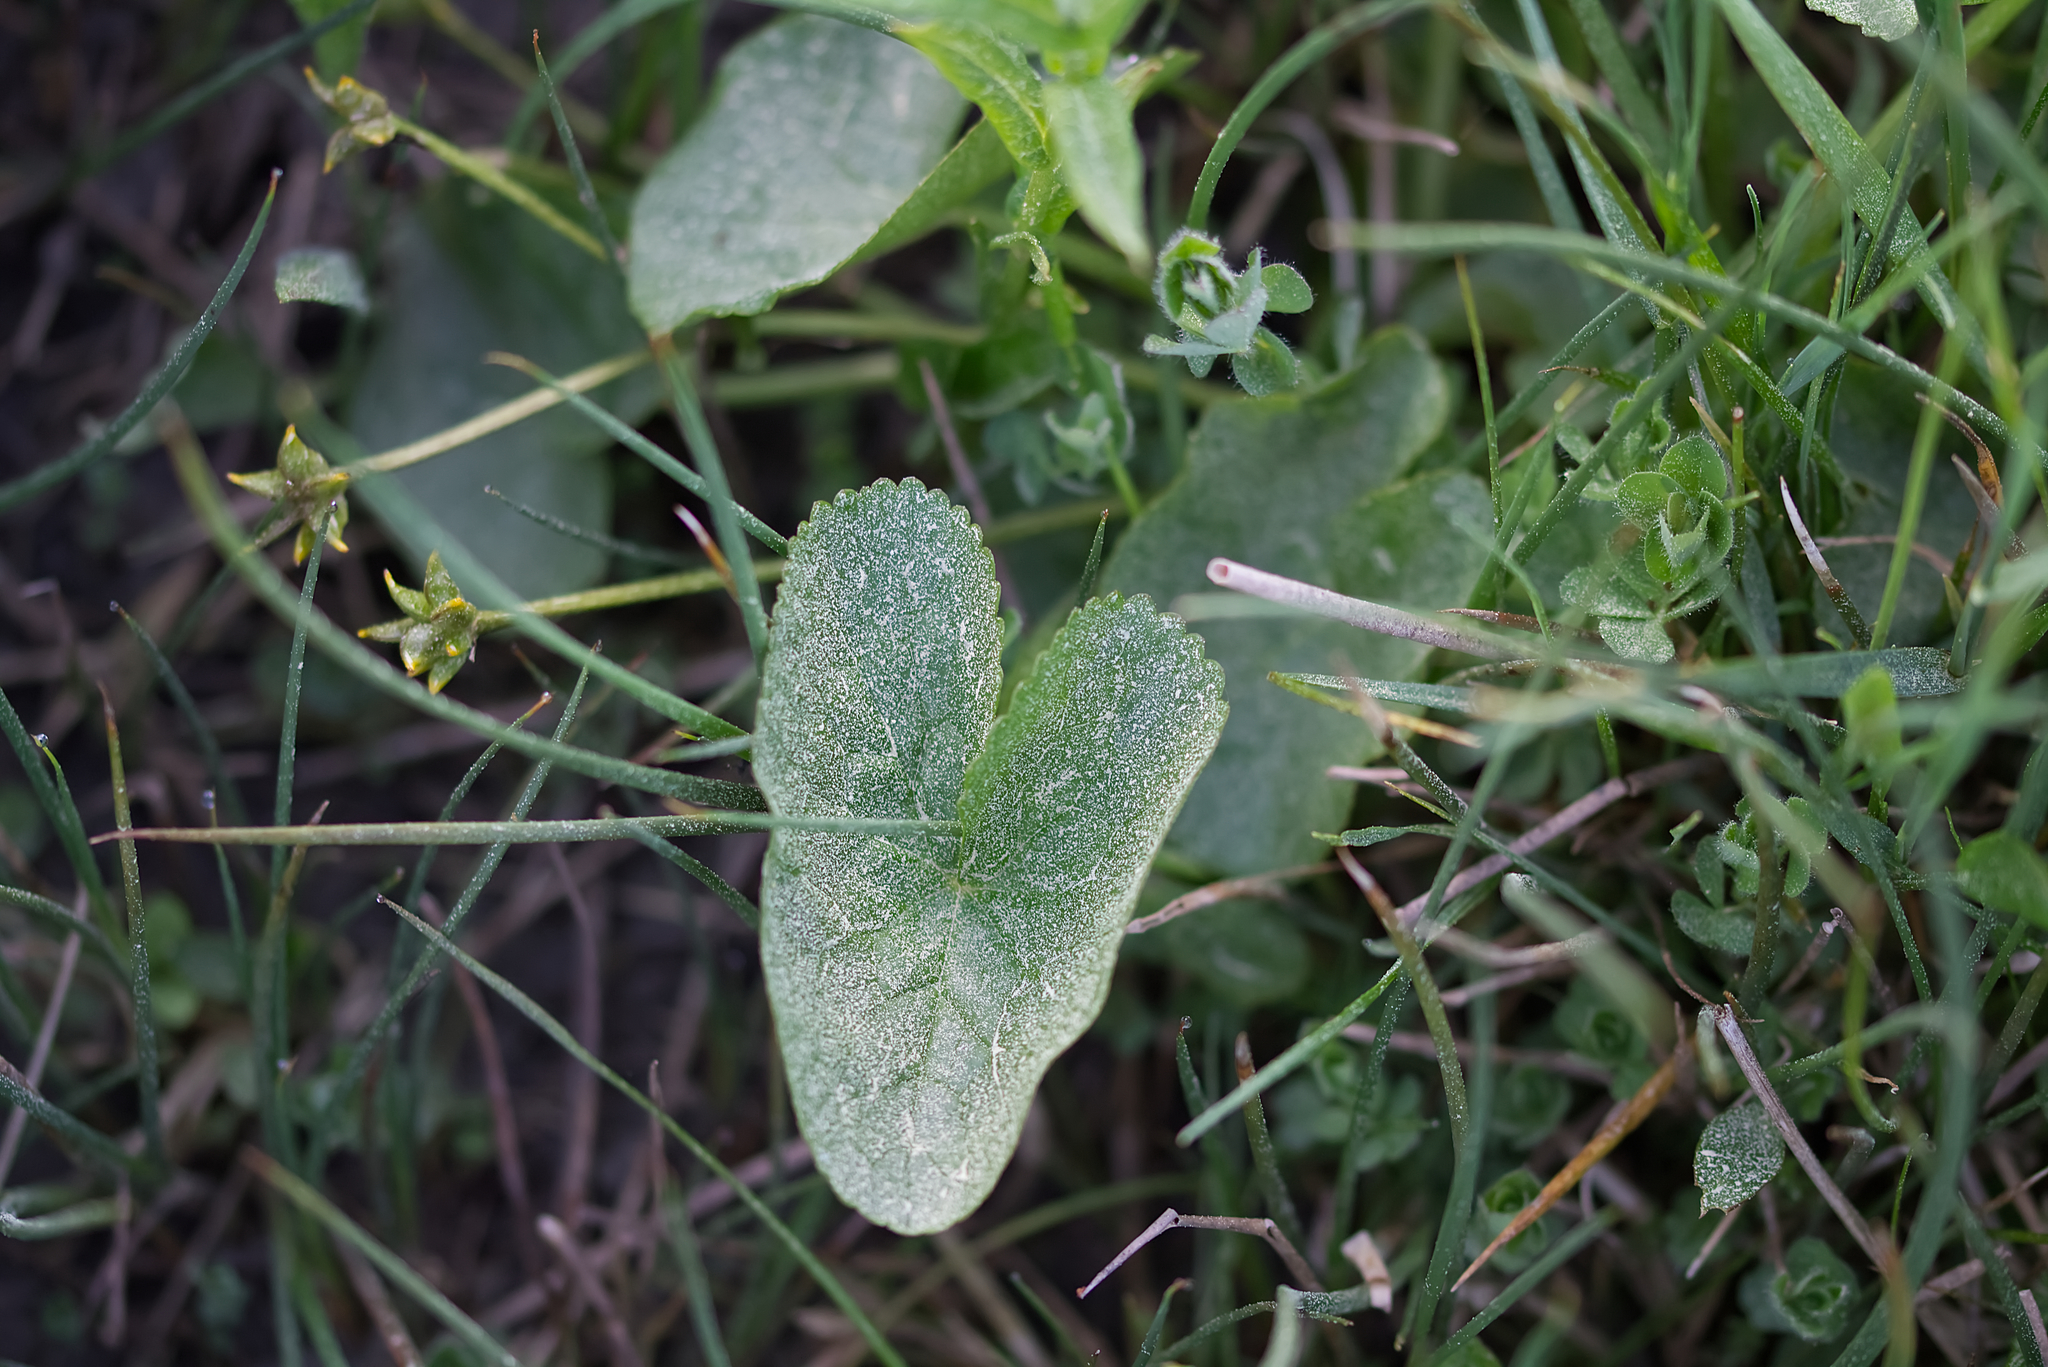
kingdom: Plantae
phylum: Tracheophyta
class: Magnoliopsida
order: Ranunculales
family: Ranunculaceae
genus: Caltha
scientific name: Caltha palustris
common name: Marsh marigold
